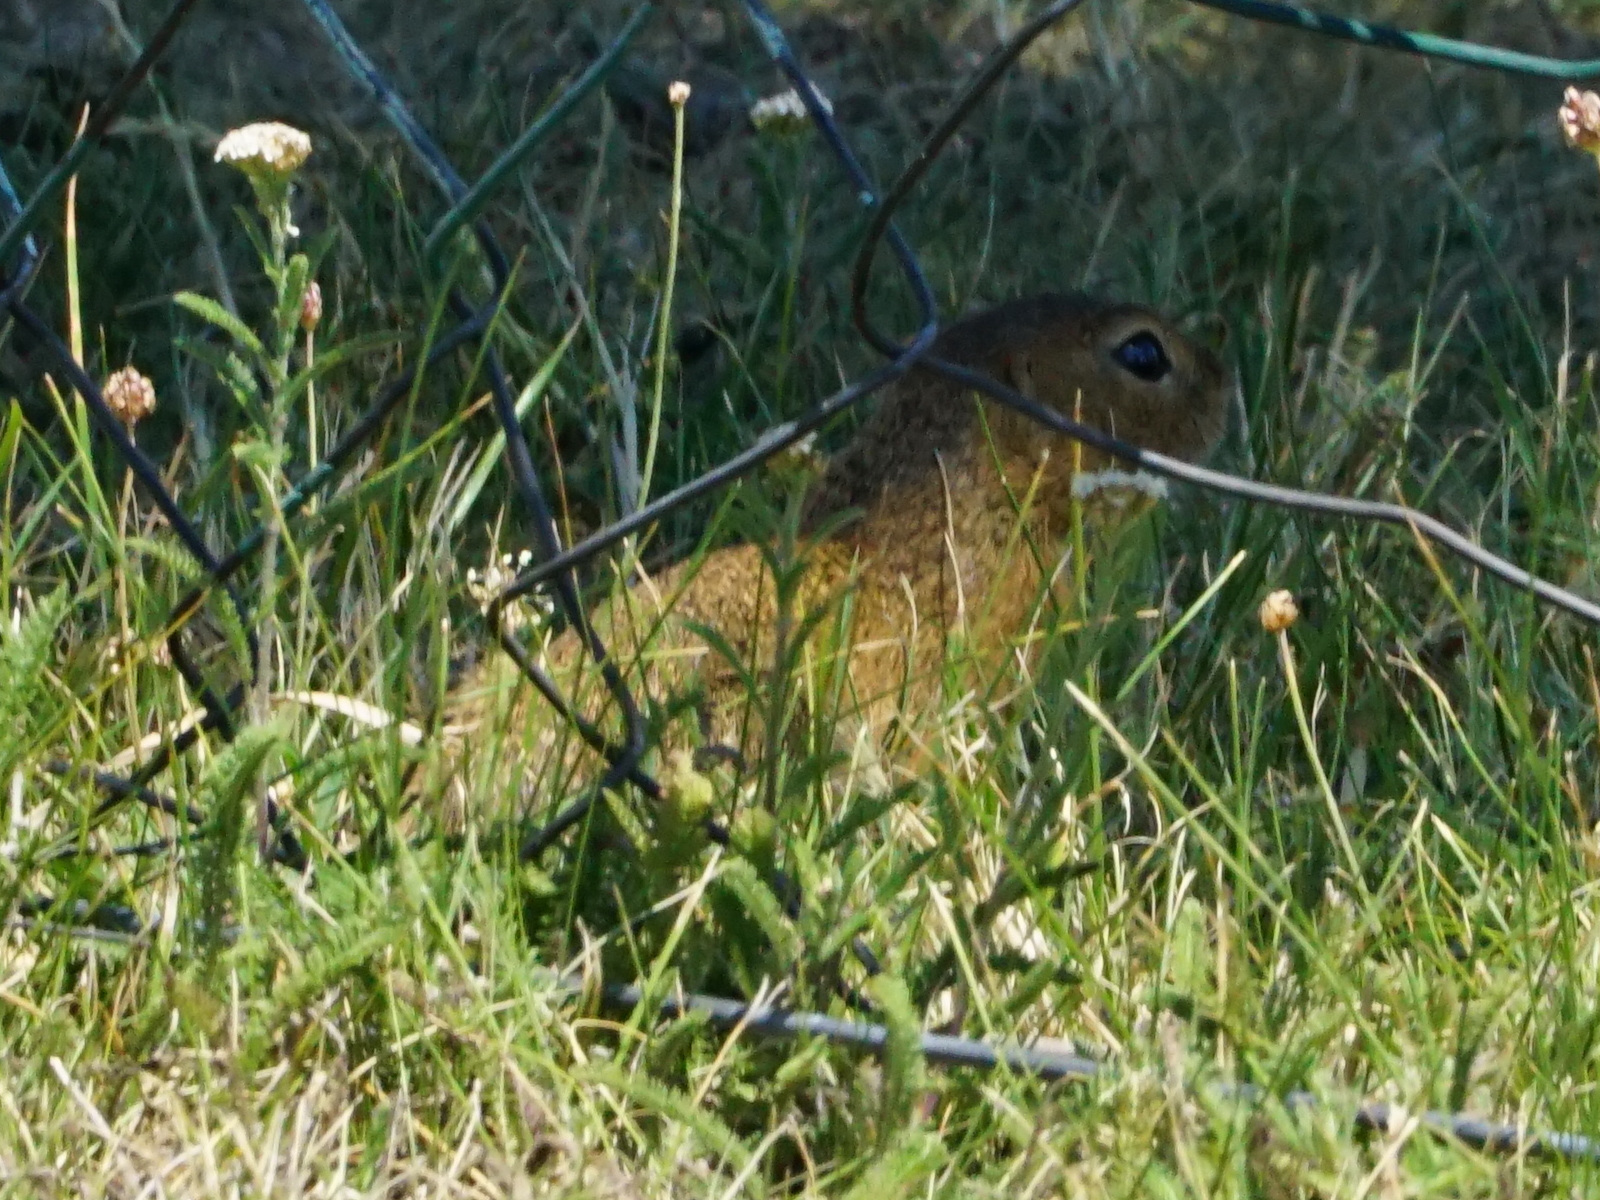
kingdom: Animalia
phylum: Chordata
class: Mammalia
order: Rodentia
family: Sciuridae
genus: Spermophilus
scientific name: Spermophilus citellus
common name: European ground squirrel
